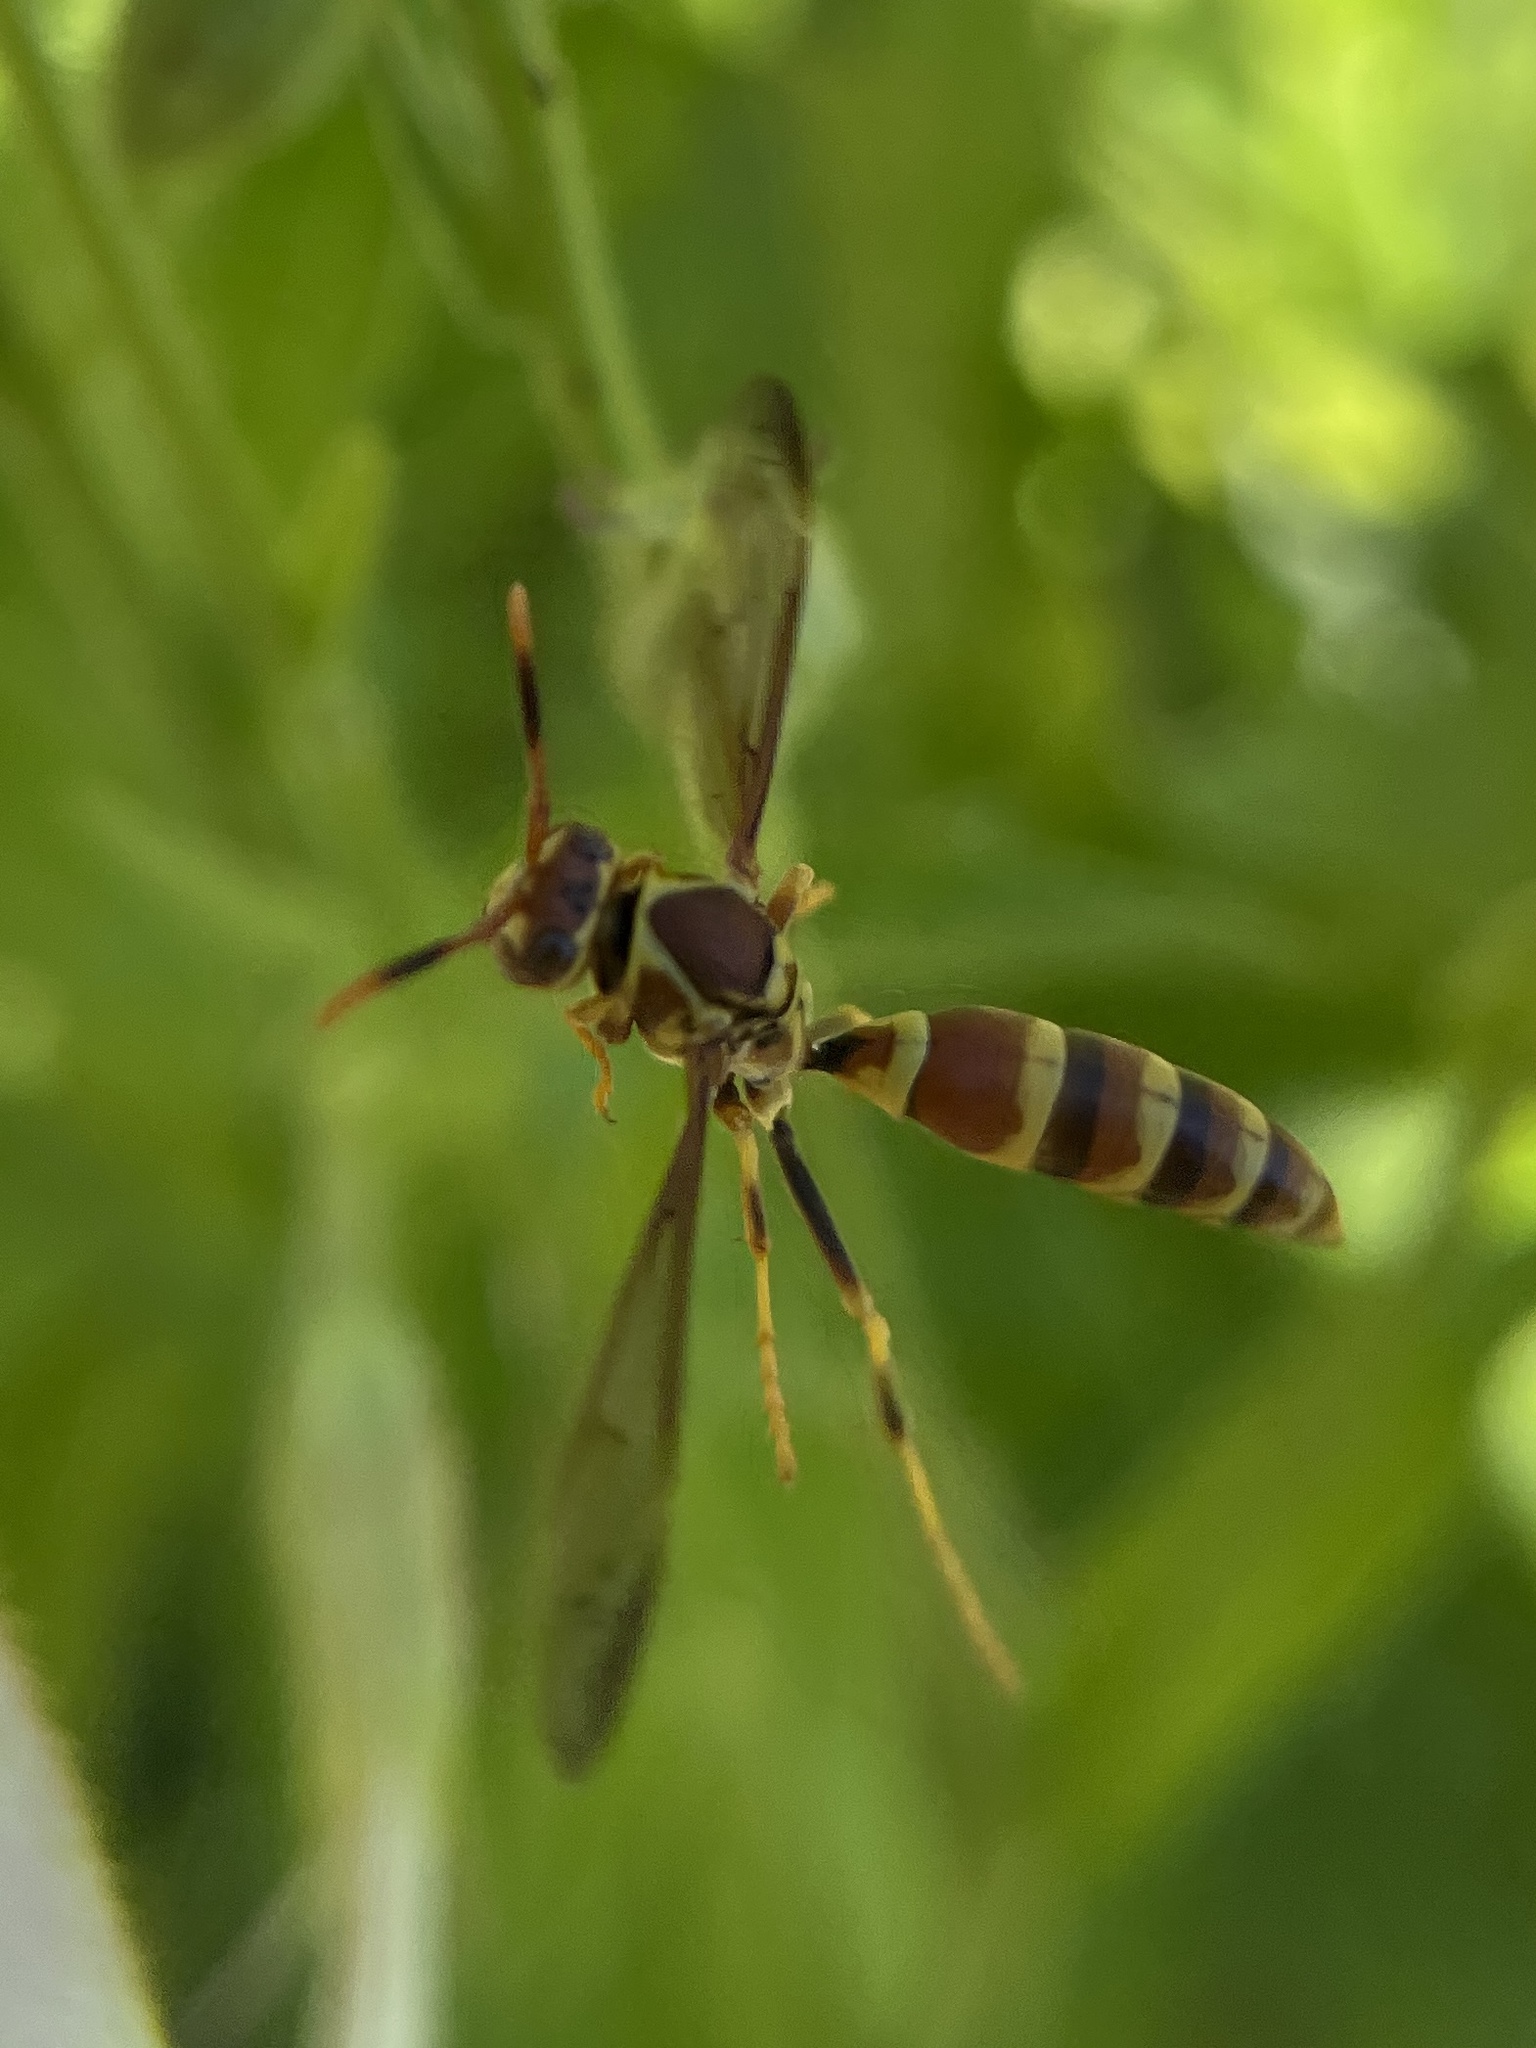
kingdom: Animalia
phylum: Arthropoda
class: Insecta
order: Hymenoptera
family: Eumenidae
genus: Polistes
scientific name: Polistes exclamans
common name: Paper wasp
